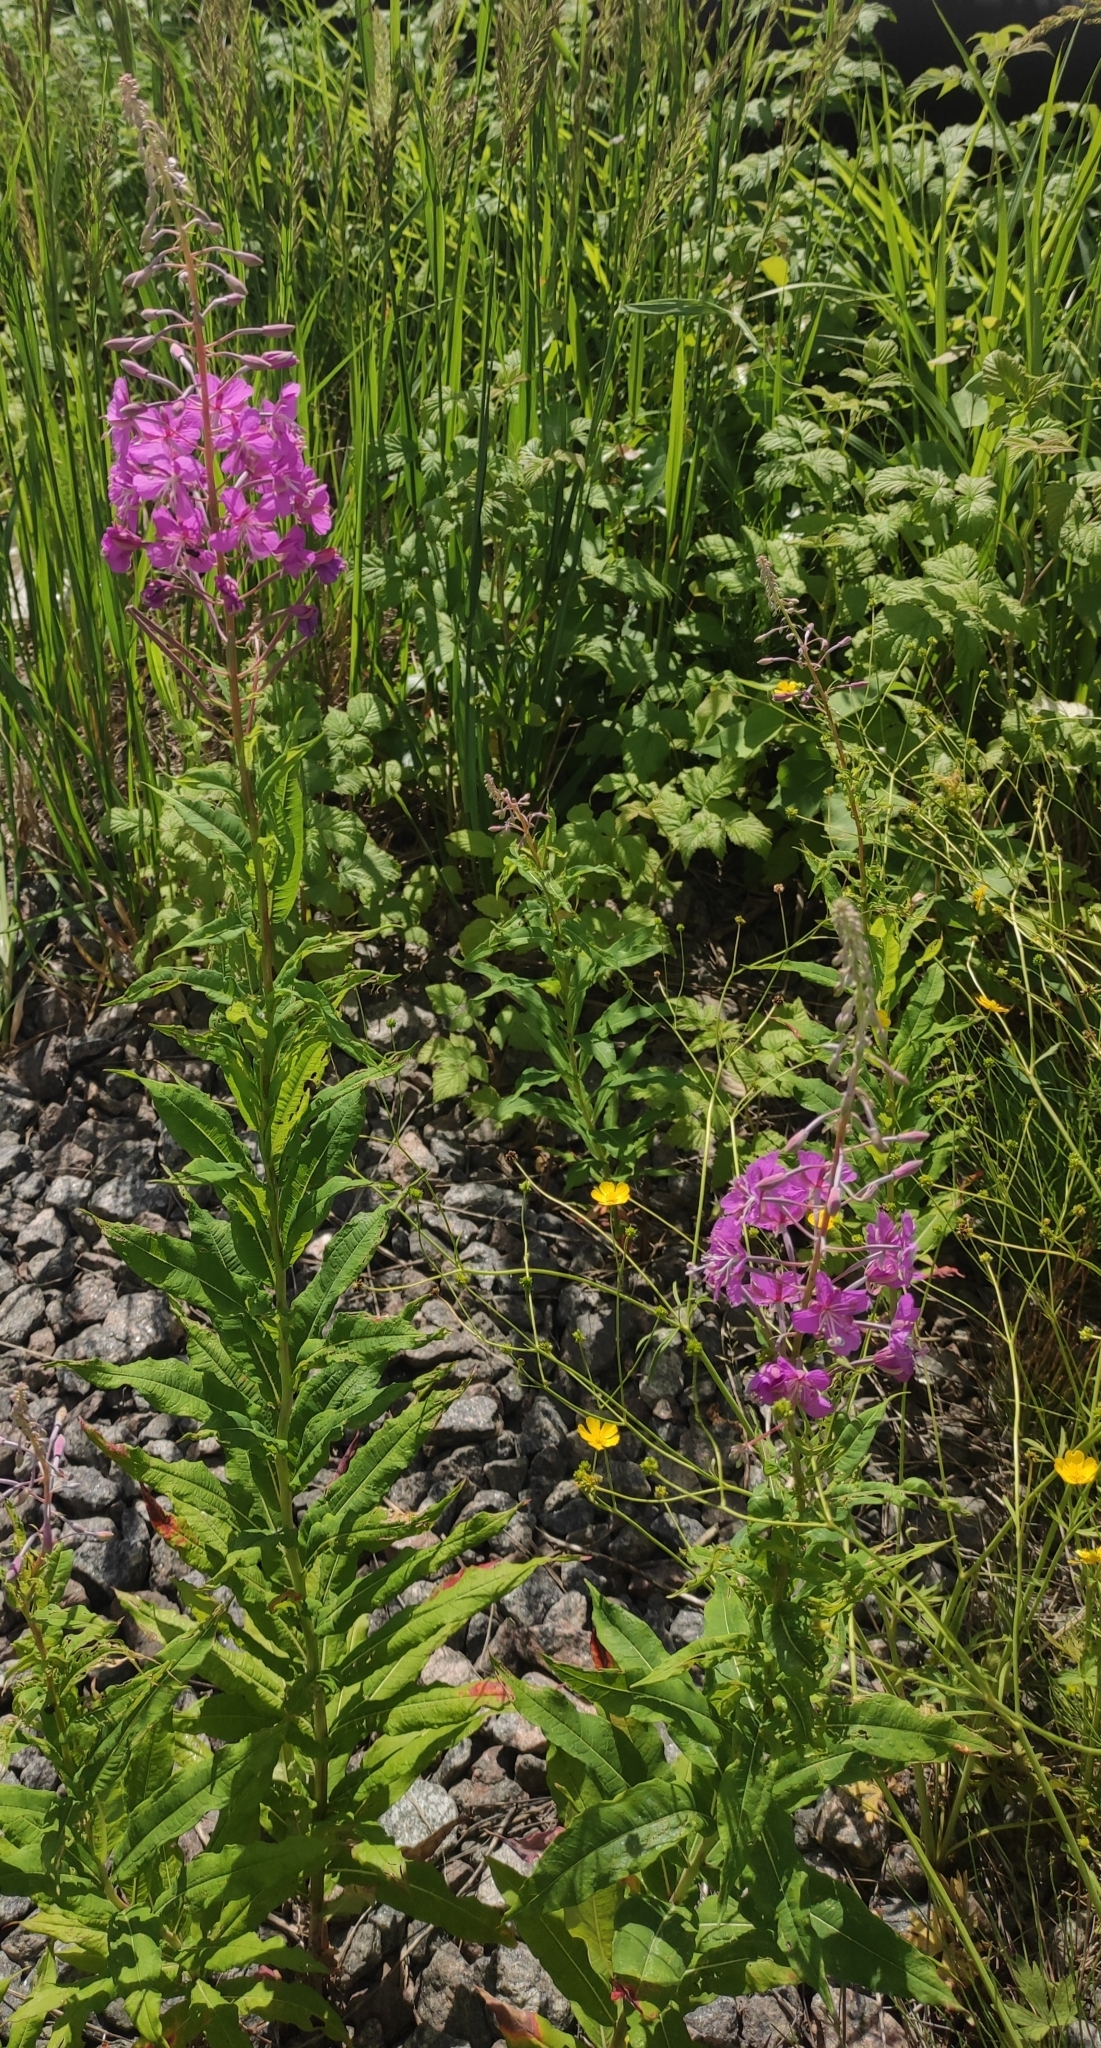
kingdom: Plantae
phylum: Tracheophyta
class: Magnoliopsida
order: Myrtales
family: Onagraceae
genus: Chamaenerion
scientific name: Chamaenerion angustifolium
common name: Fireweed
